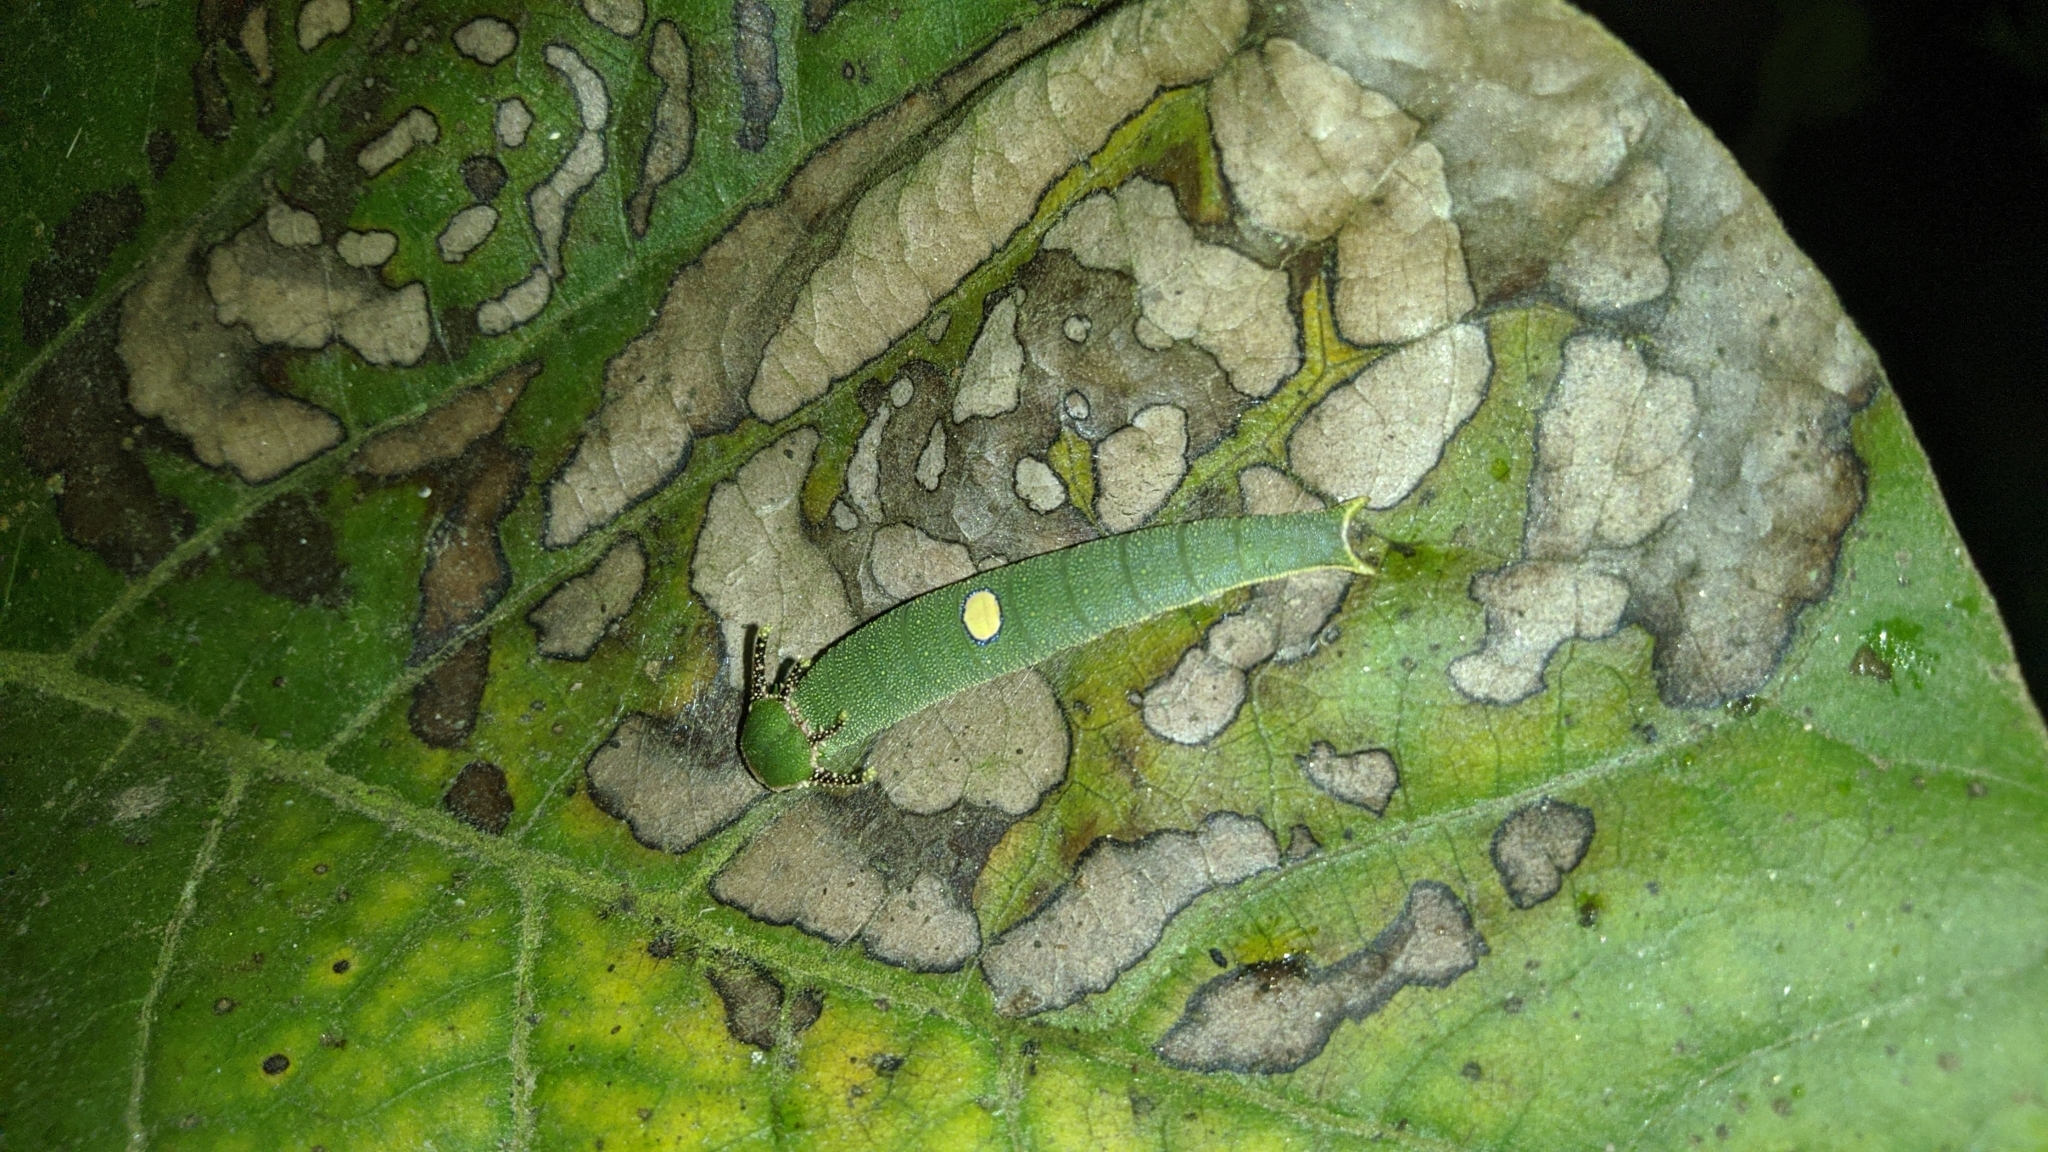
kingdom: Animalia
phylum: Arthropoda
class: Insecta
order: Lepidoptera
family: Nymphalidae
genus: Charaxes
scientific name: Charaxes bernardus
